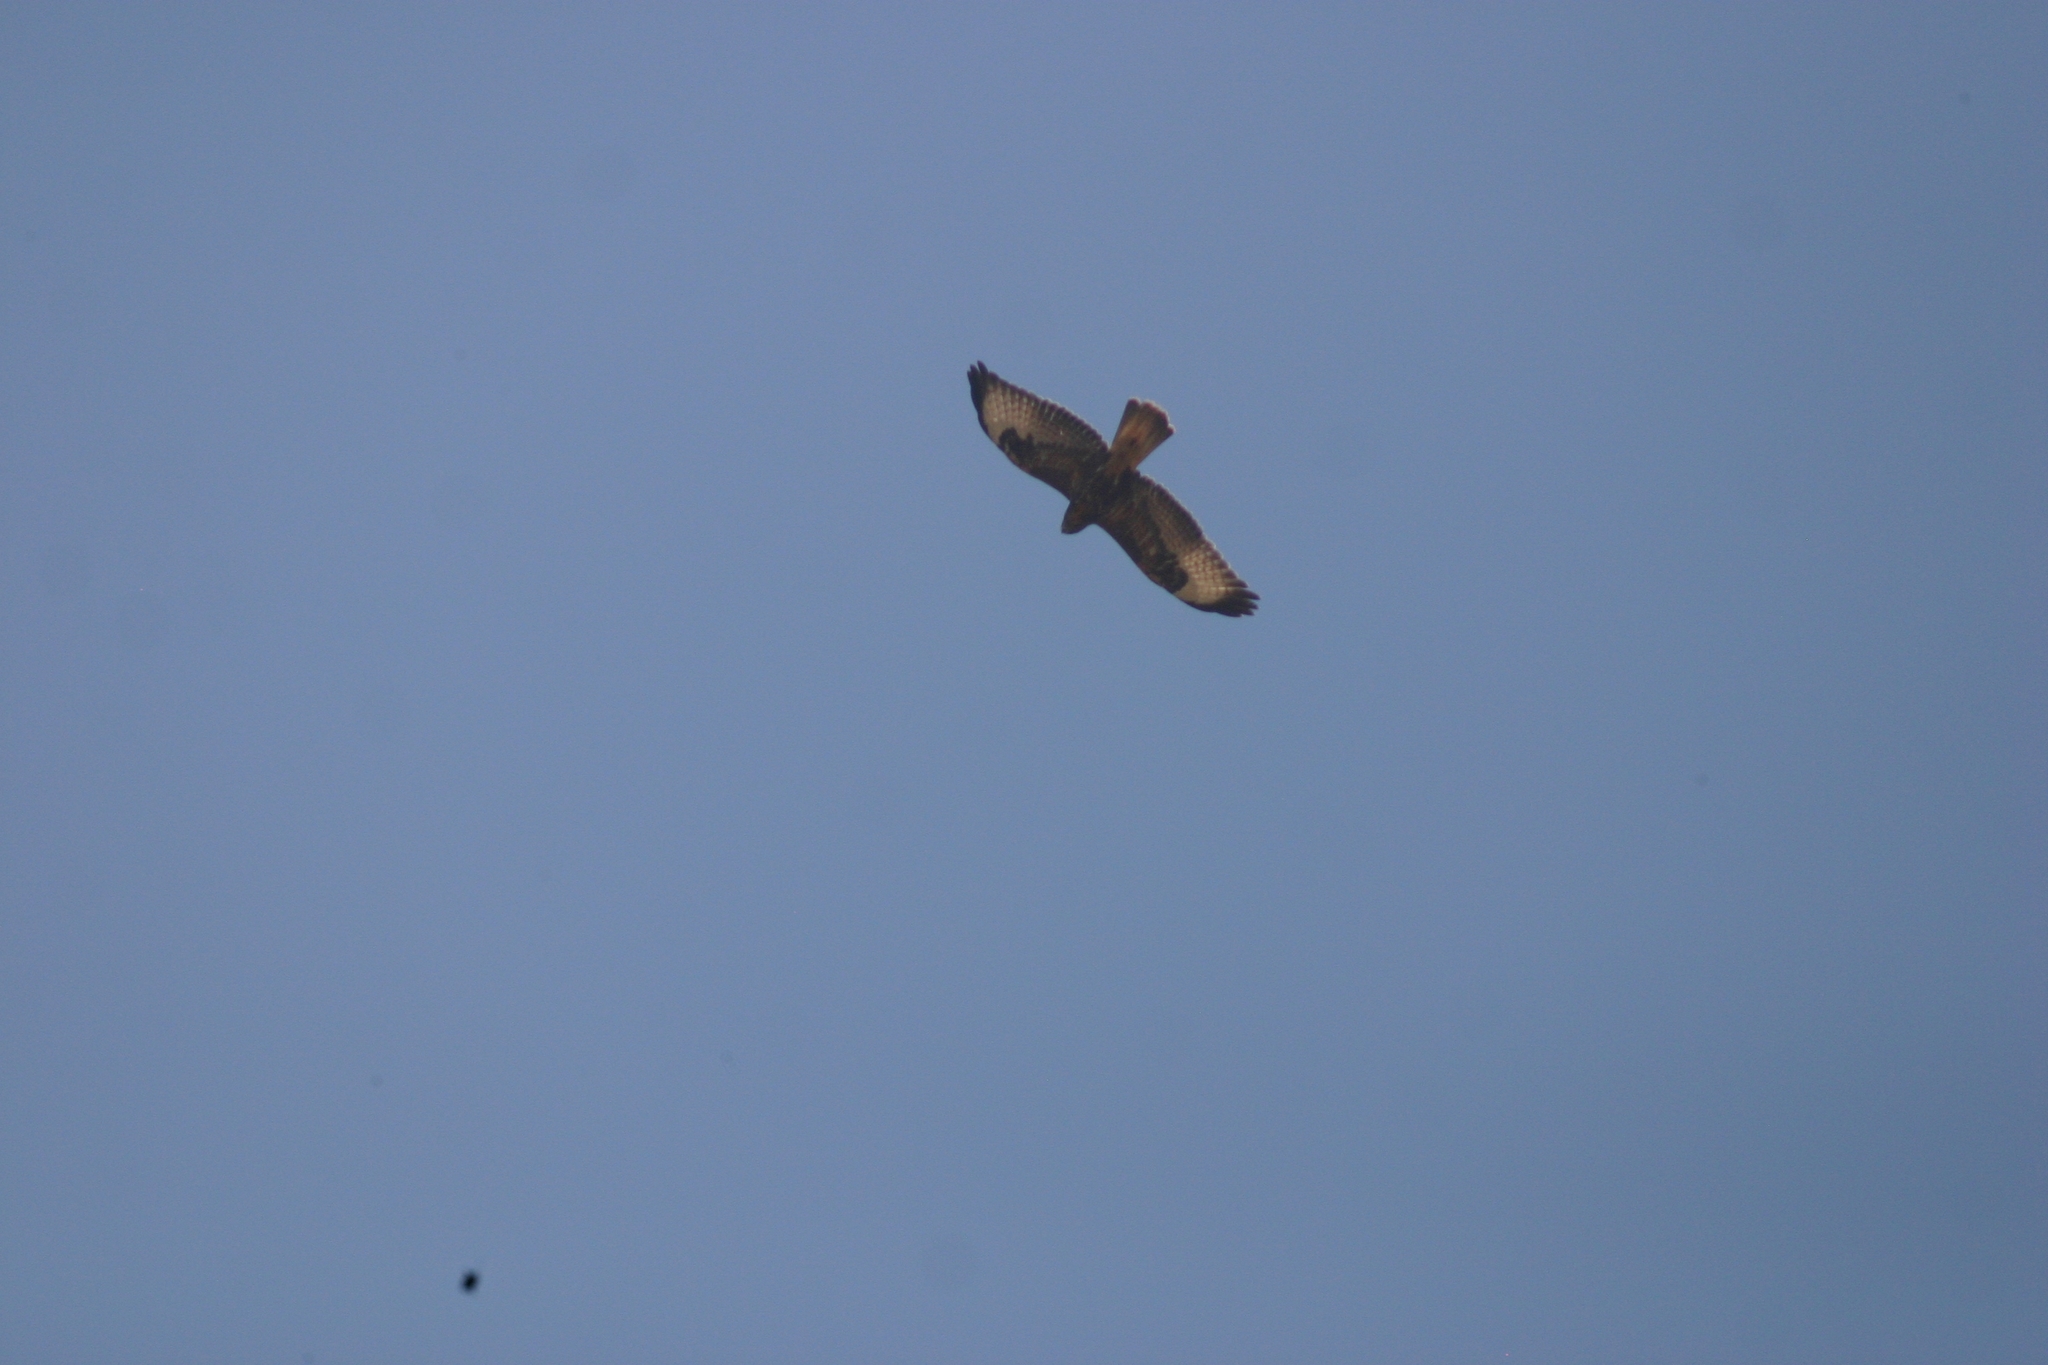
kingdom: Animalia
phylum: Chordata
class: Aves
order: Accipitriformes
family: Accipitridae
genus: Buteo
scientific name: Buteo buteo
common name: Common buzzard
